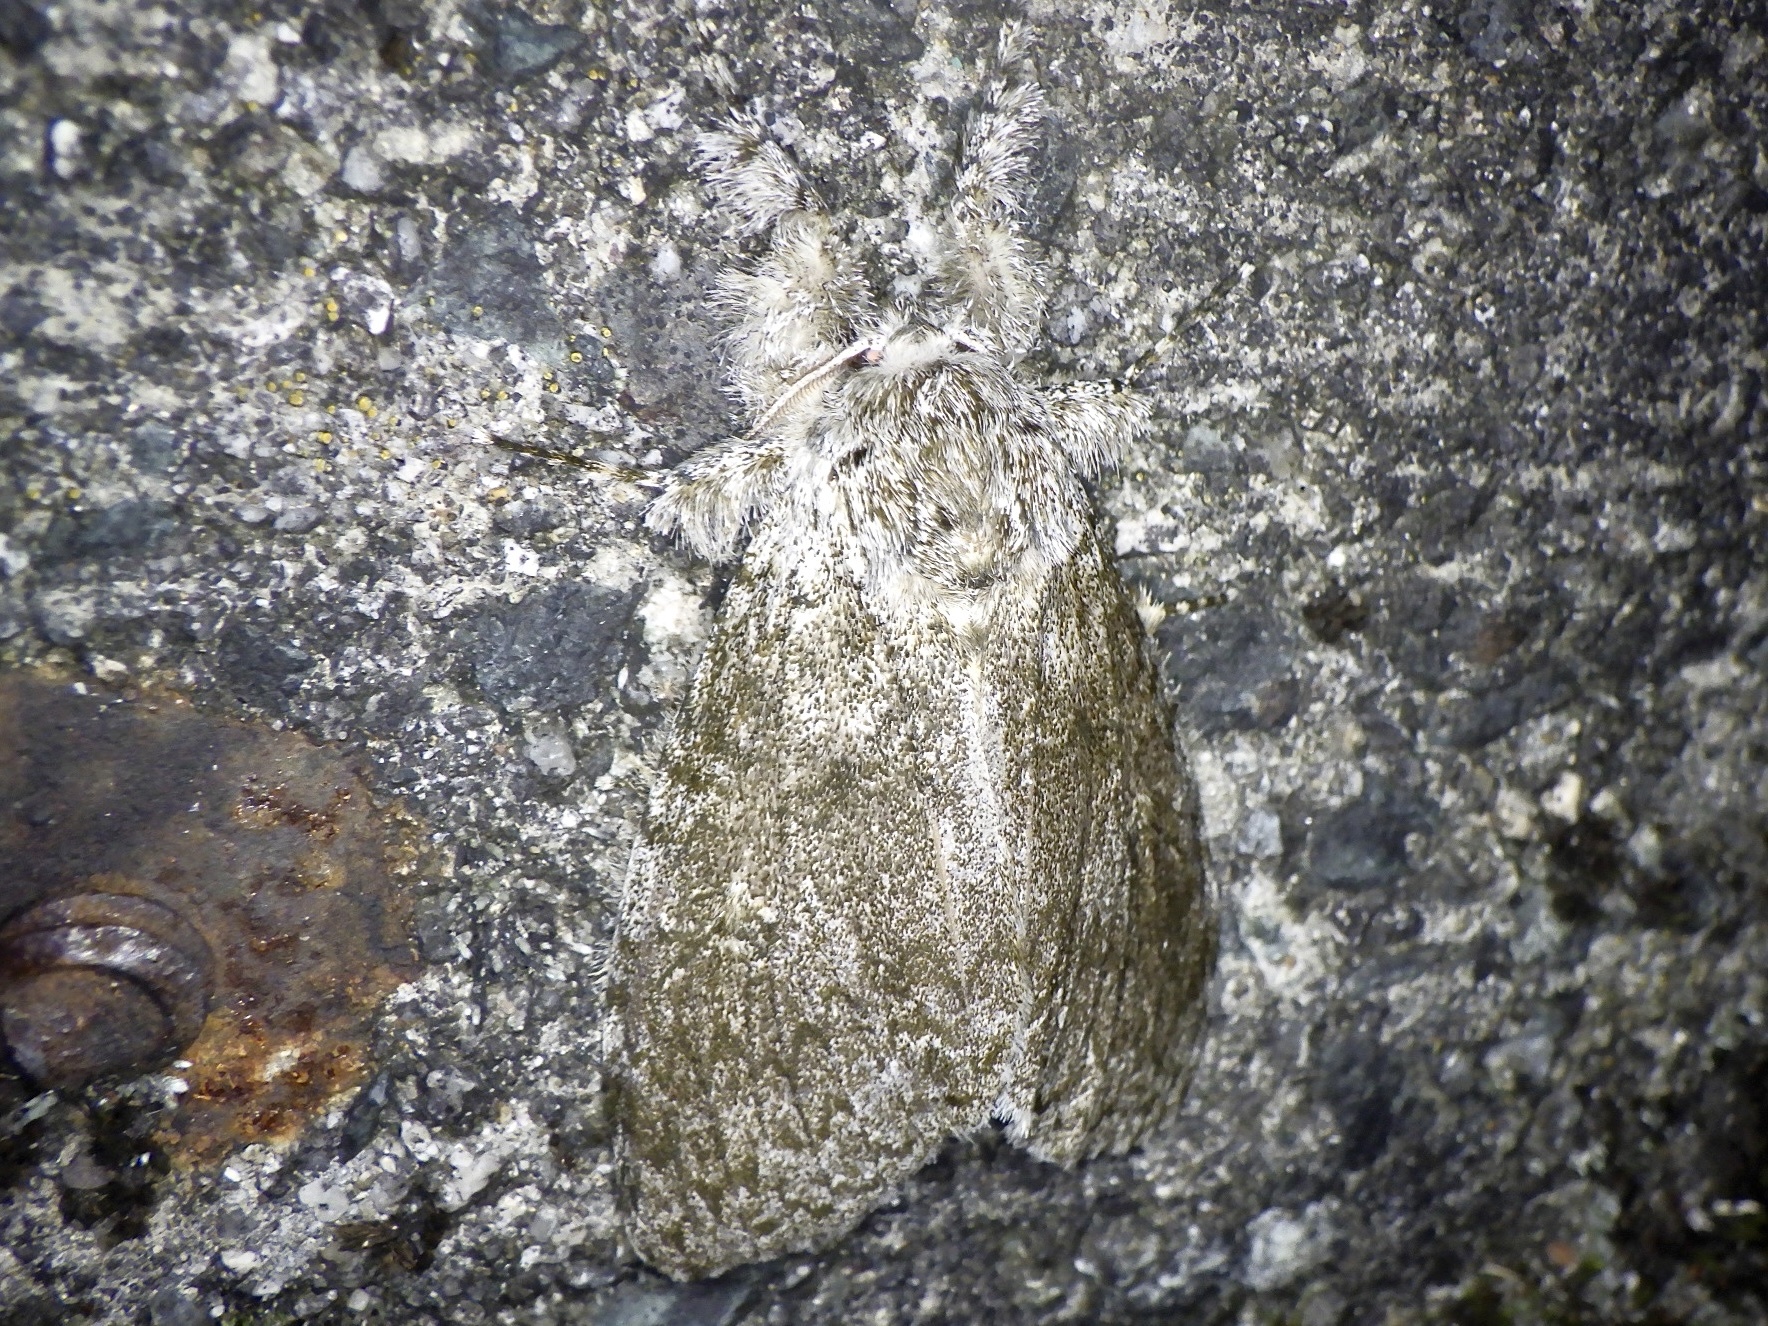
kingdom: Animalia
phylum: Arthropoda
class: Insecta
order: Lepidoptera
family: Erebidae
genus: Calliteara
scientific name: Calliteara taiwana
